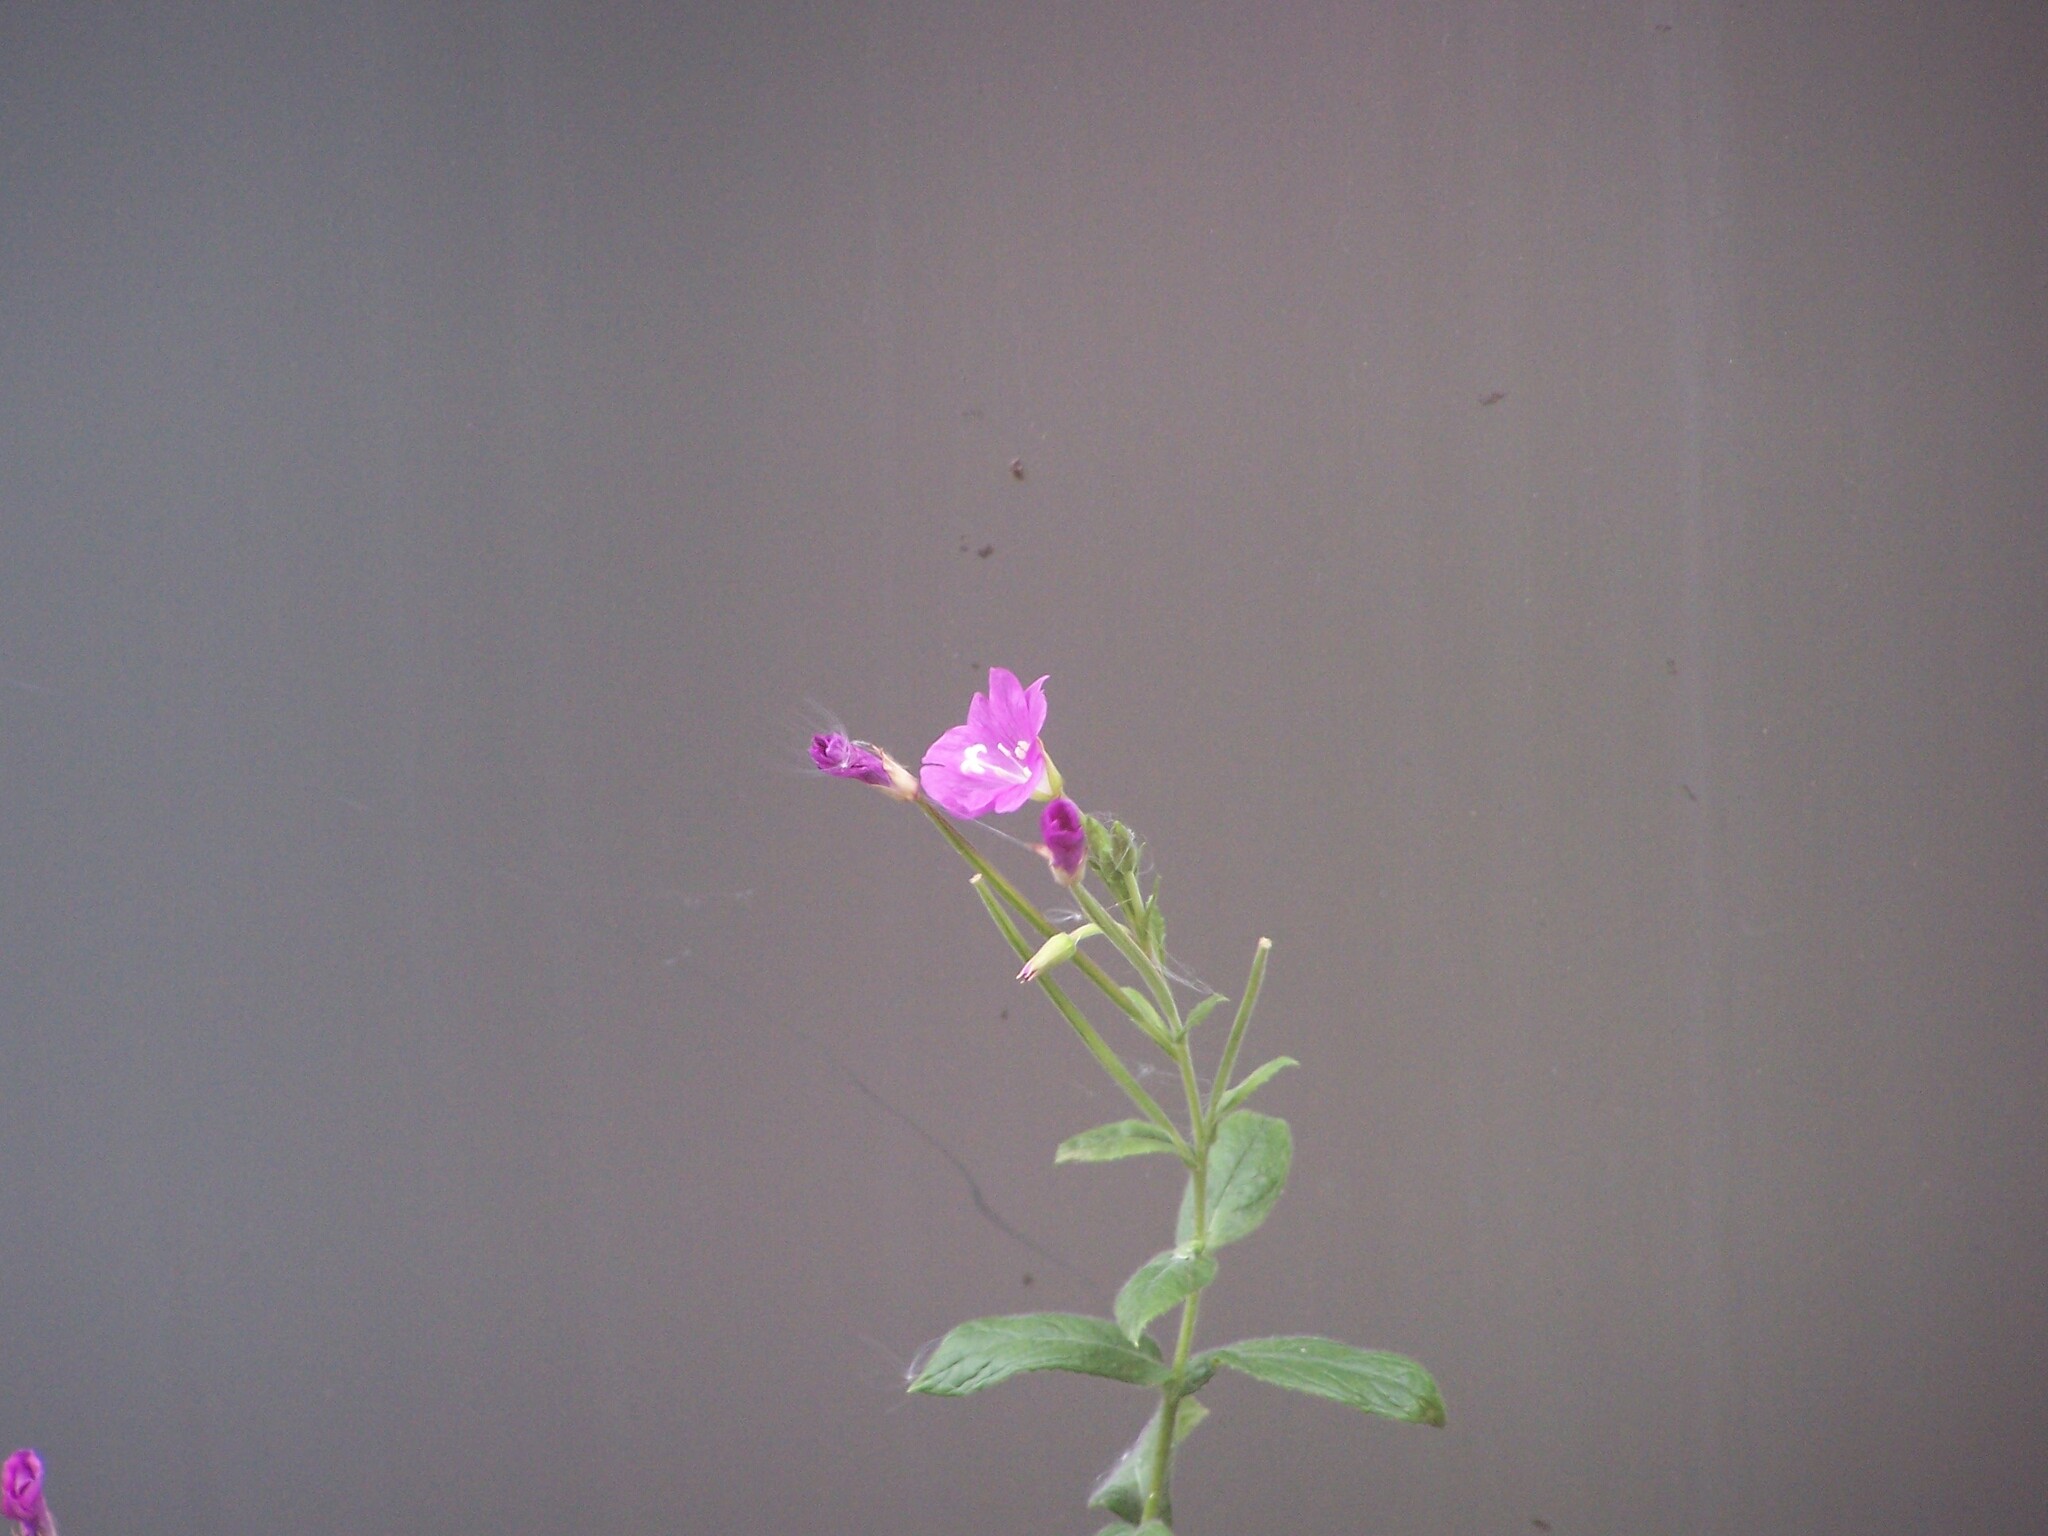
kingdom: Plantae
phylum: Tracheophyta
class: Magnoliopsida
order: Myrtales
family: Onagraceae
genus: Epilobium
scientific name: Epilobium hirsutum
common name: Great willowherb
